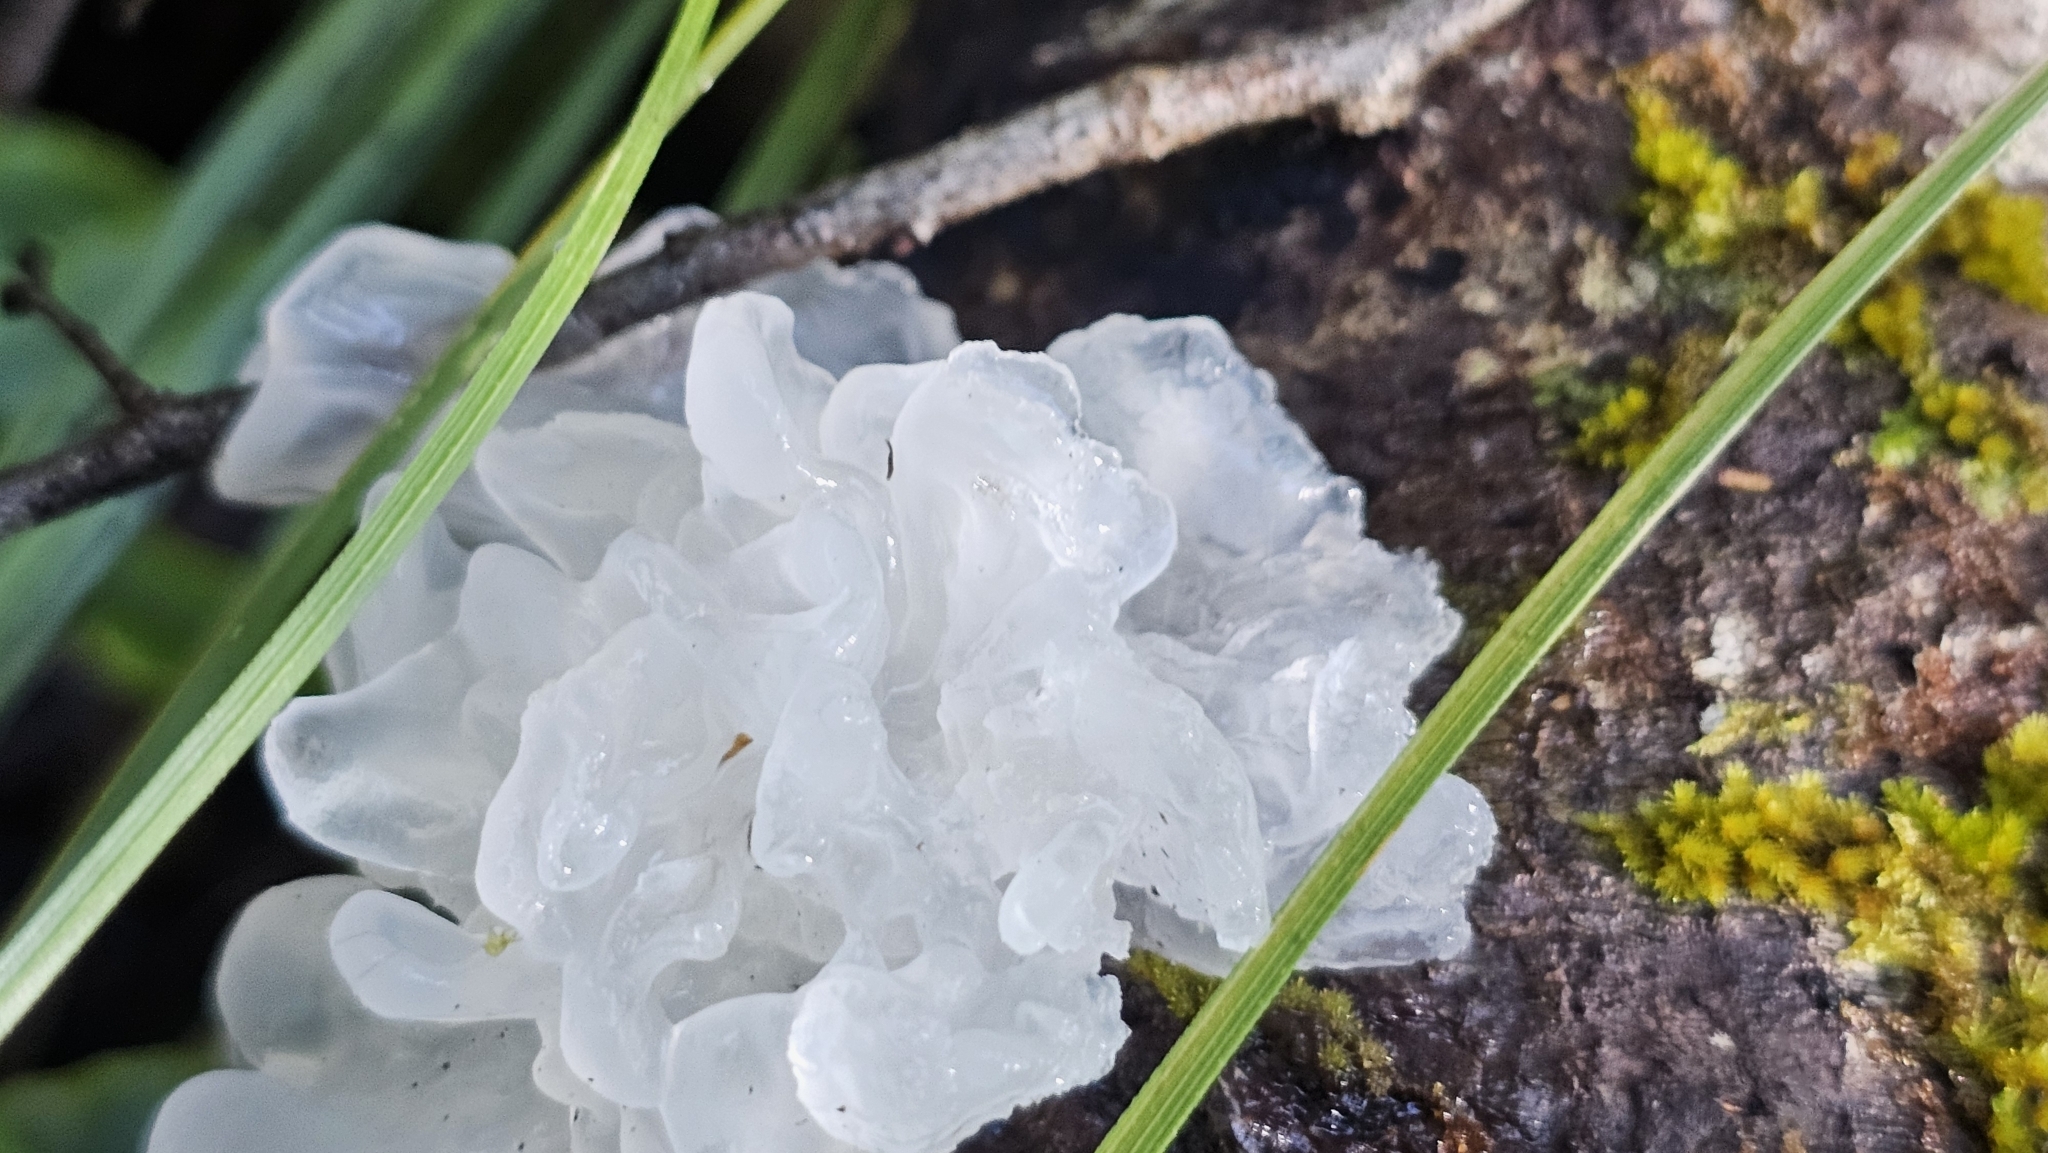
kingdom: Fungi
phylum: Basidiomycota
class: Tremellomycetes
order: Tremellales
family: Tremellaceae
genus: Tremella
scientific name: Tremella fuciformis
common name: Snow fungus
